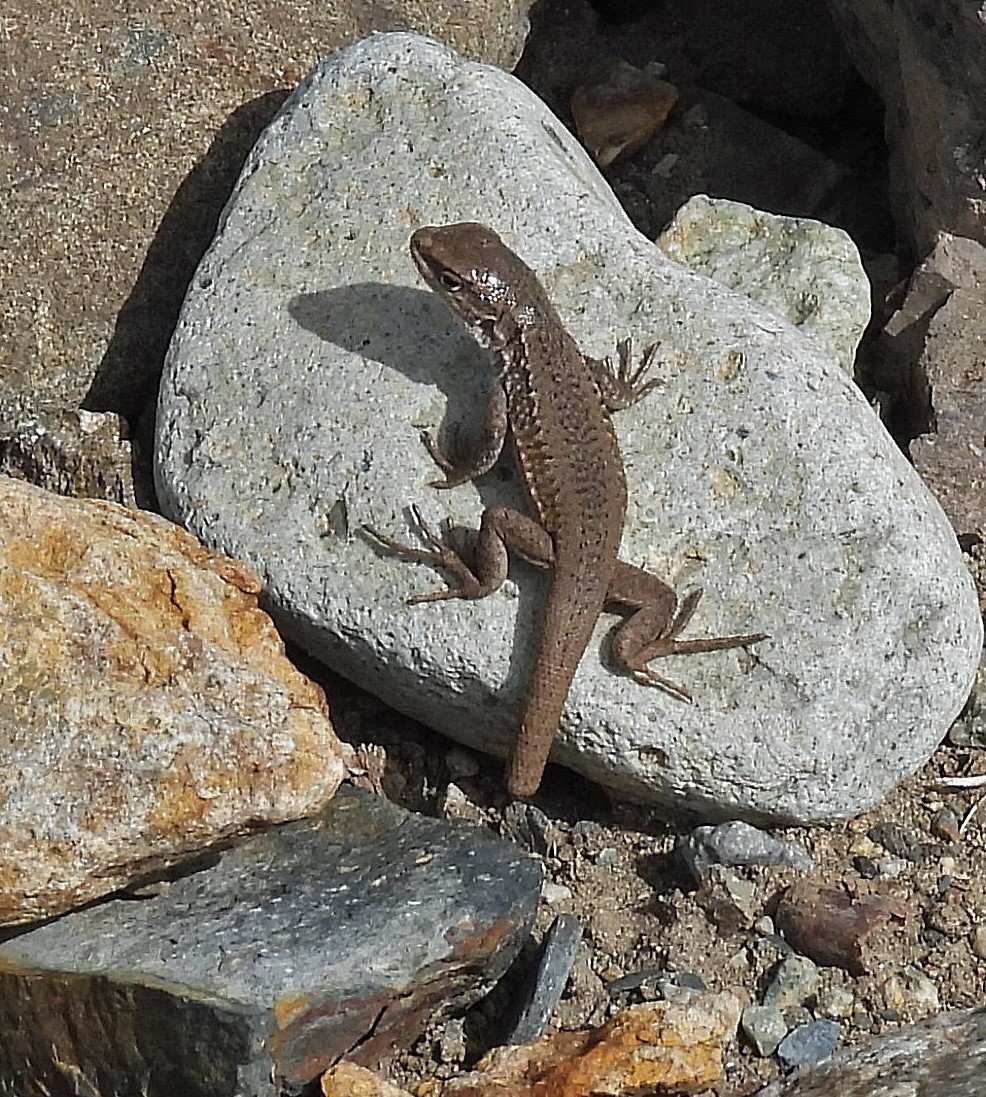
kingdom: Animalia
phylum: Chordata
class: Squamata
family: Liolaemidae
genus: Liolaemus
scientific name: Liolaemus smaug
